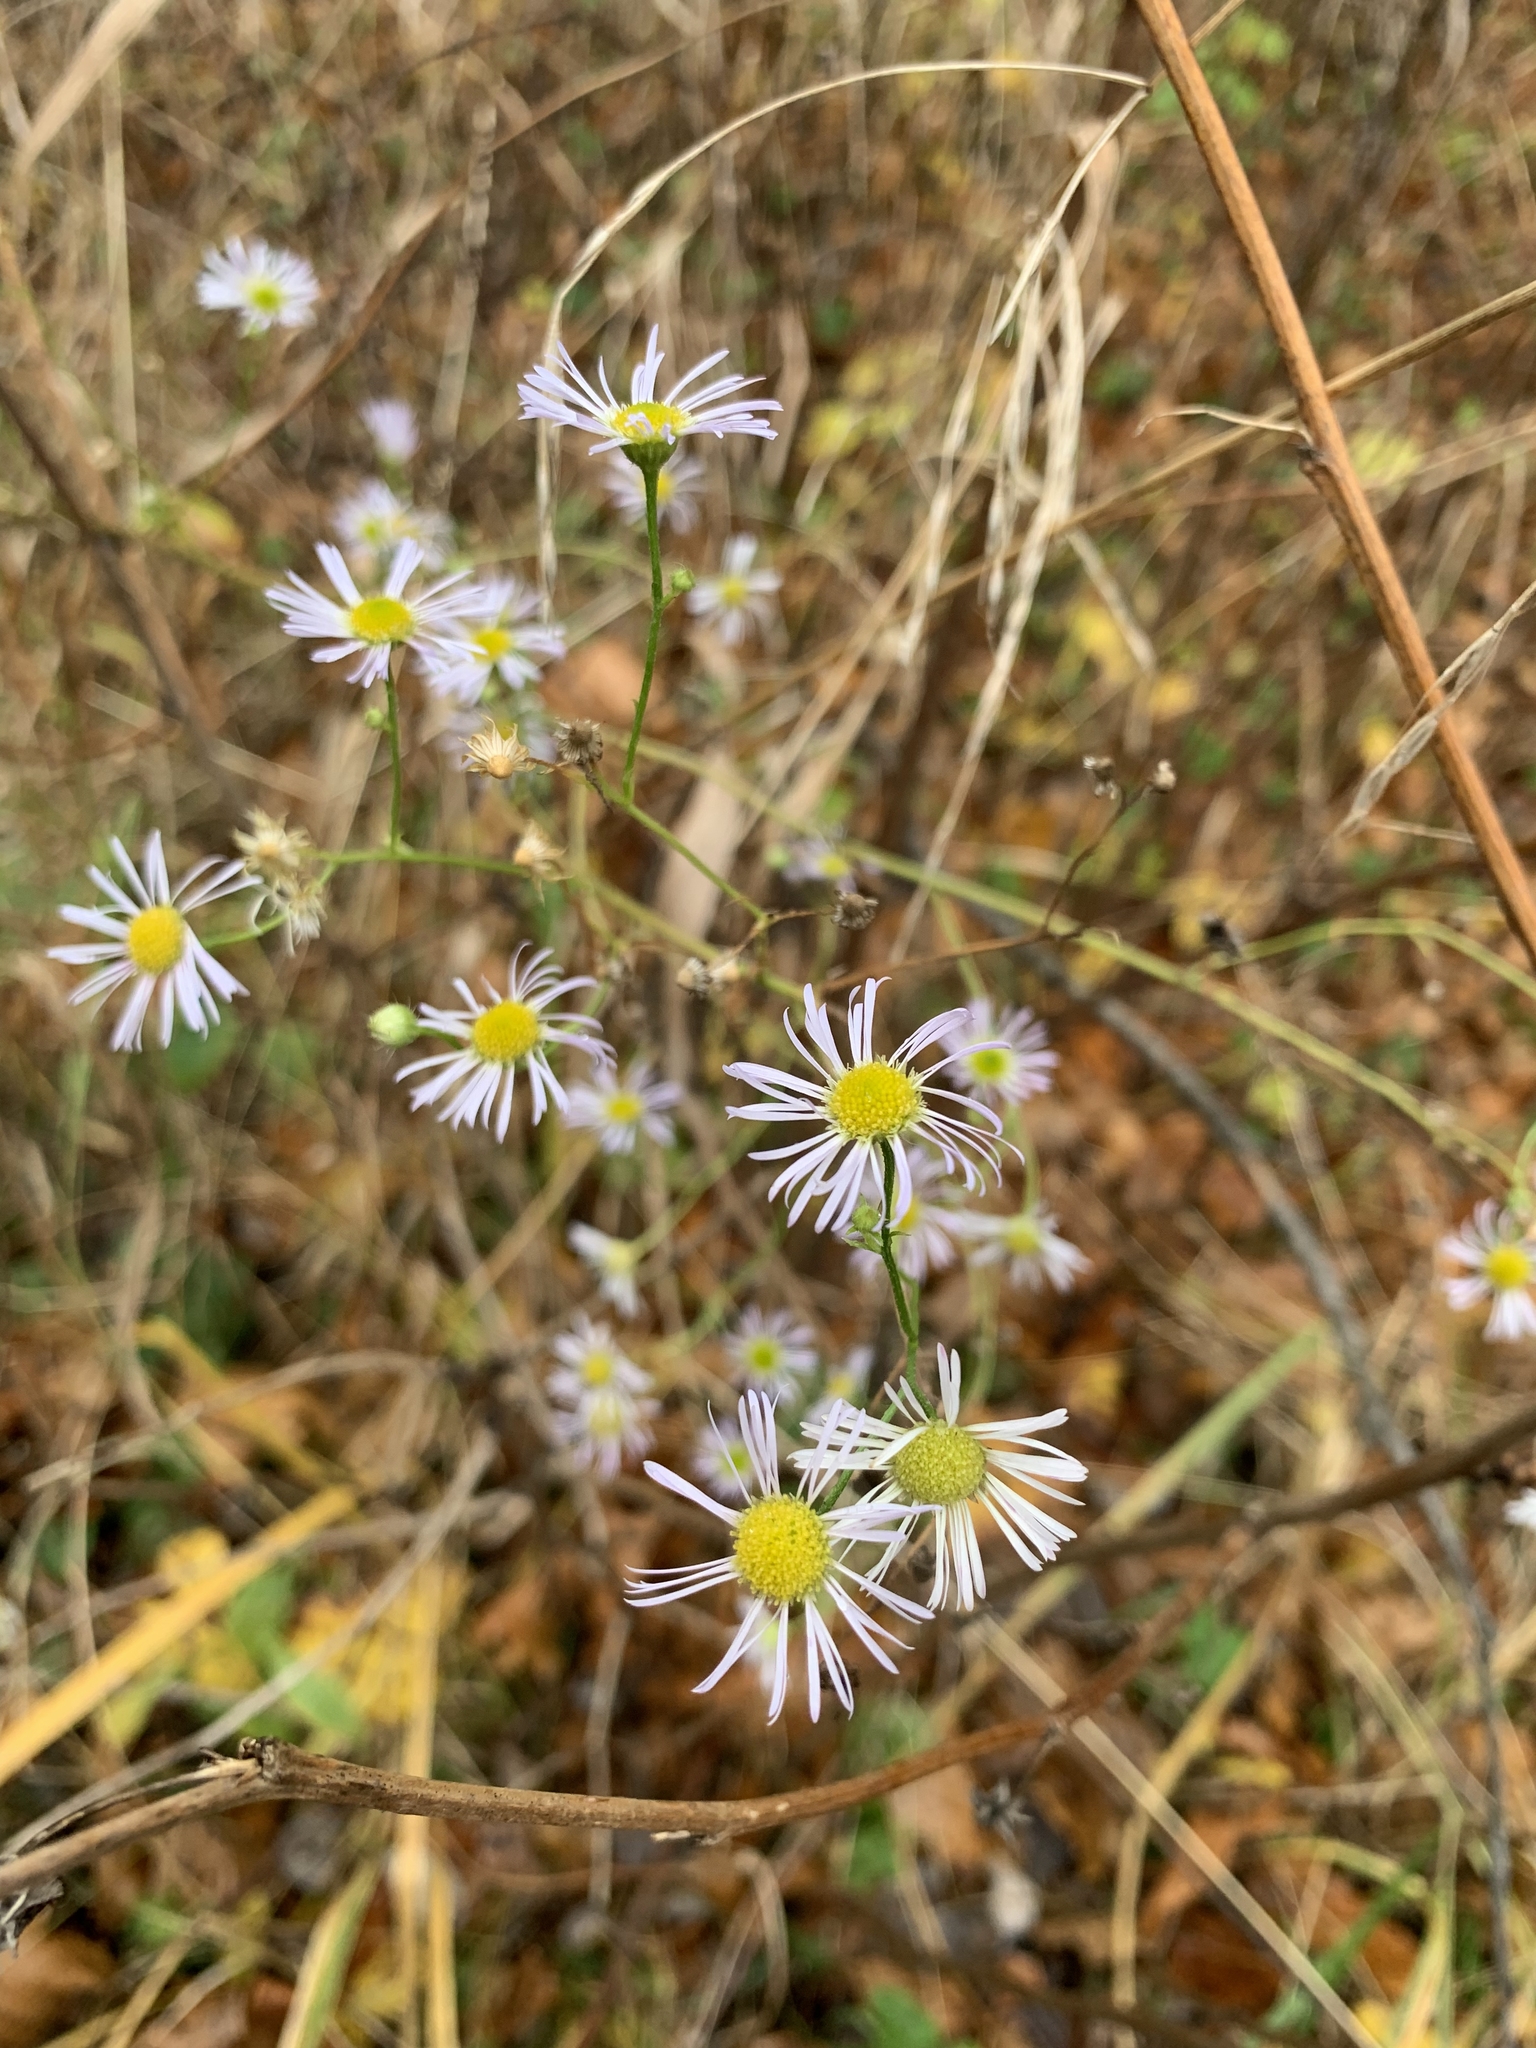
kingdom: Plantae
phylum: Tracheophyta
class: Magnoliopsida
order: Asterales
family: Asteraceae
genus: Erigeron
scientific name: Erigeron annuus
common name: Tall fleabane
